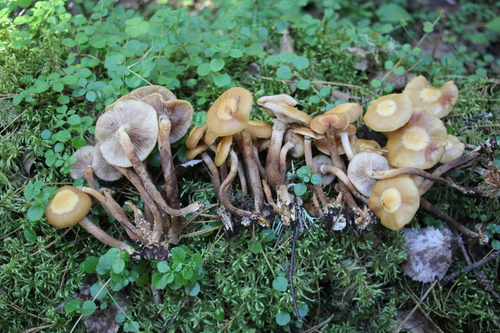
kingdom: Fungi
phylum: Basidiomycota
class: Agaricomycetes
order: Agaricales
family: Strophariaceae
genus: Kuehneromyces
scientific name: Kuehneromyces mutabilis
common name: Sheathed woodtuft
